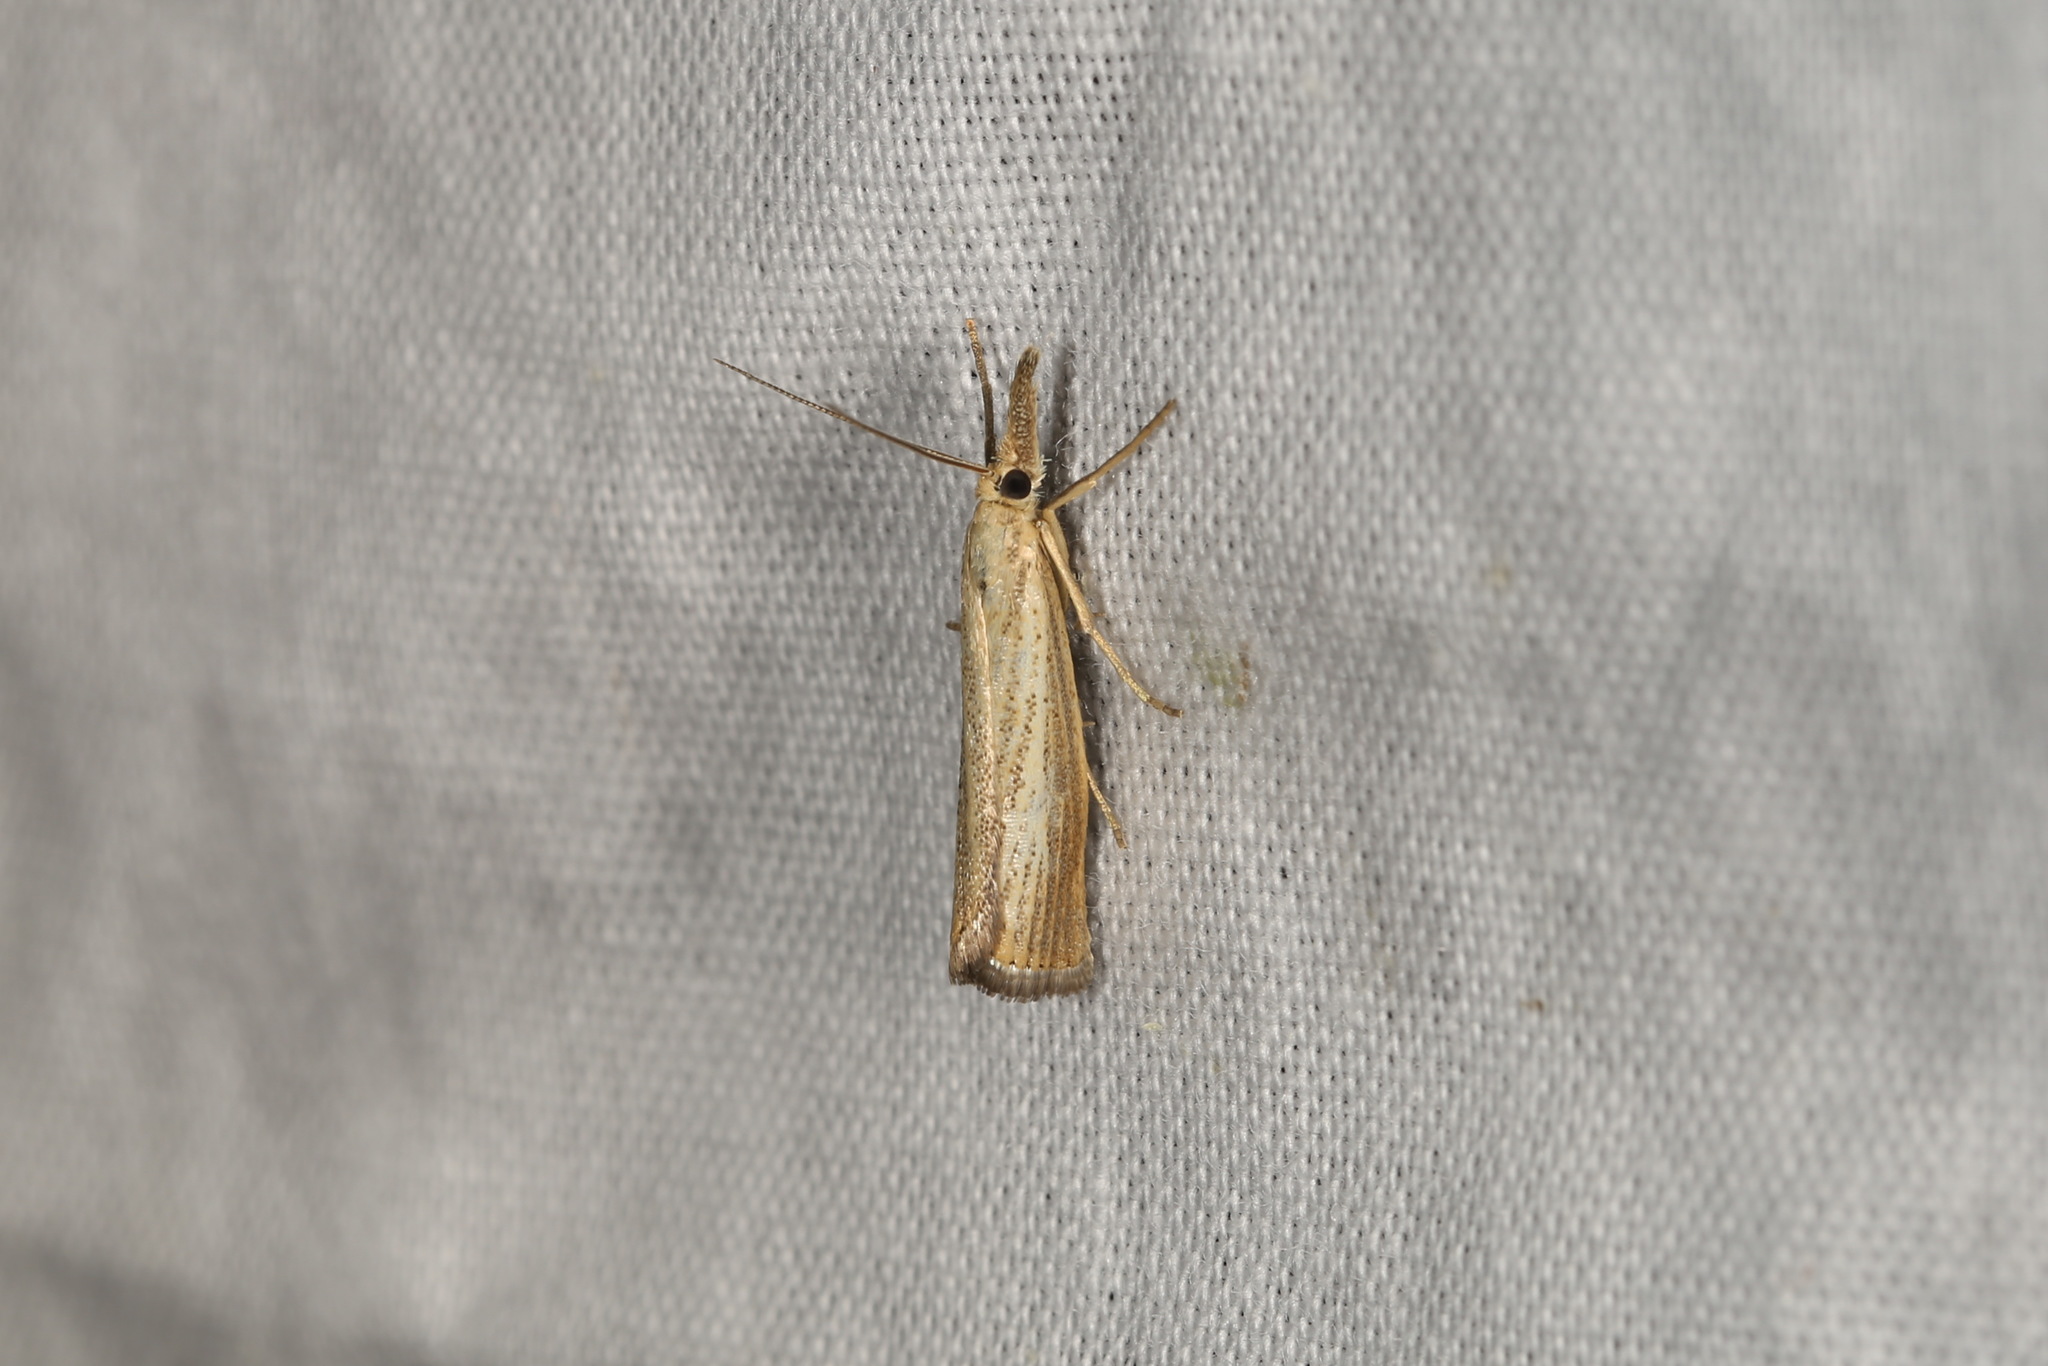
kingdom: Animalia
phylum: Arthropoda
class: Insecta
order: Lepidoptera
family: Crambidae
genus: Agriphila
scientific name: Agriphila straminella
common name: Straw grass-veneer
